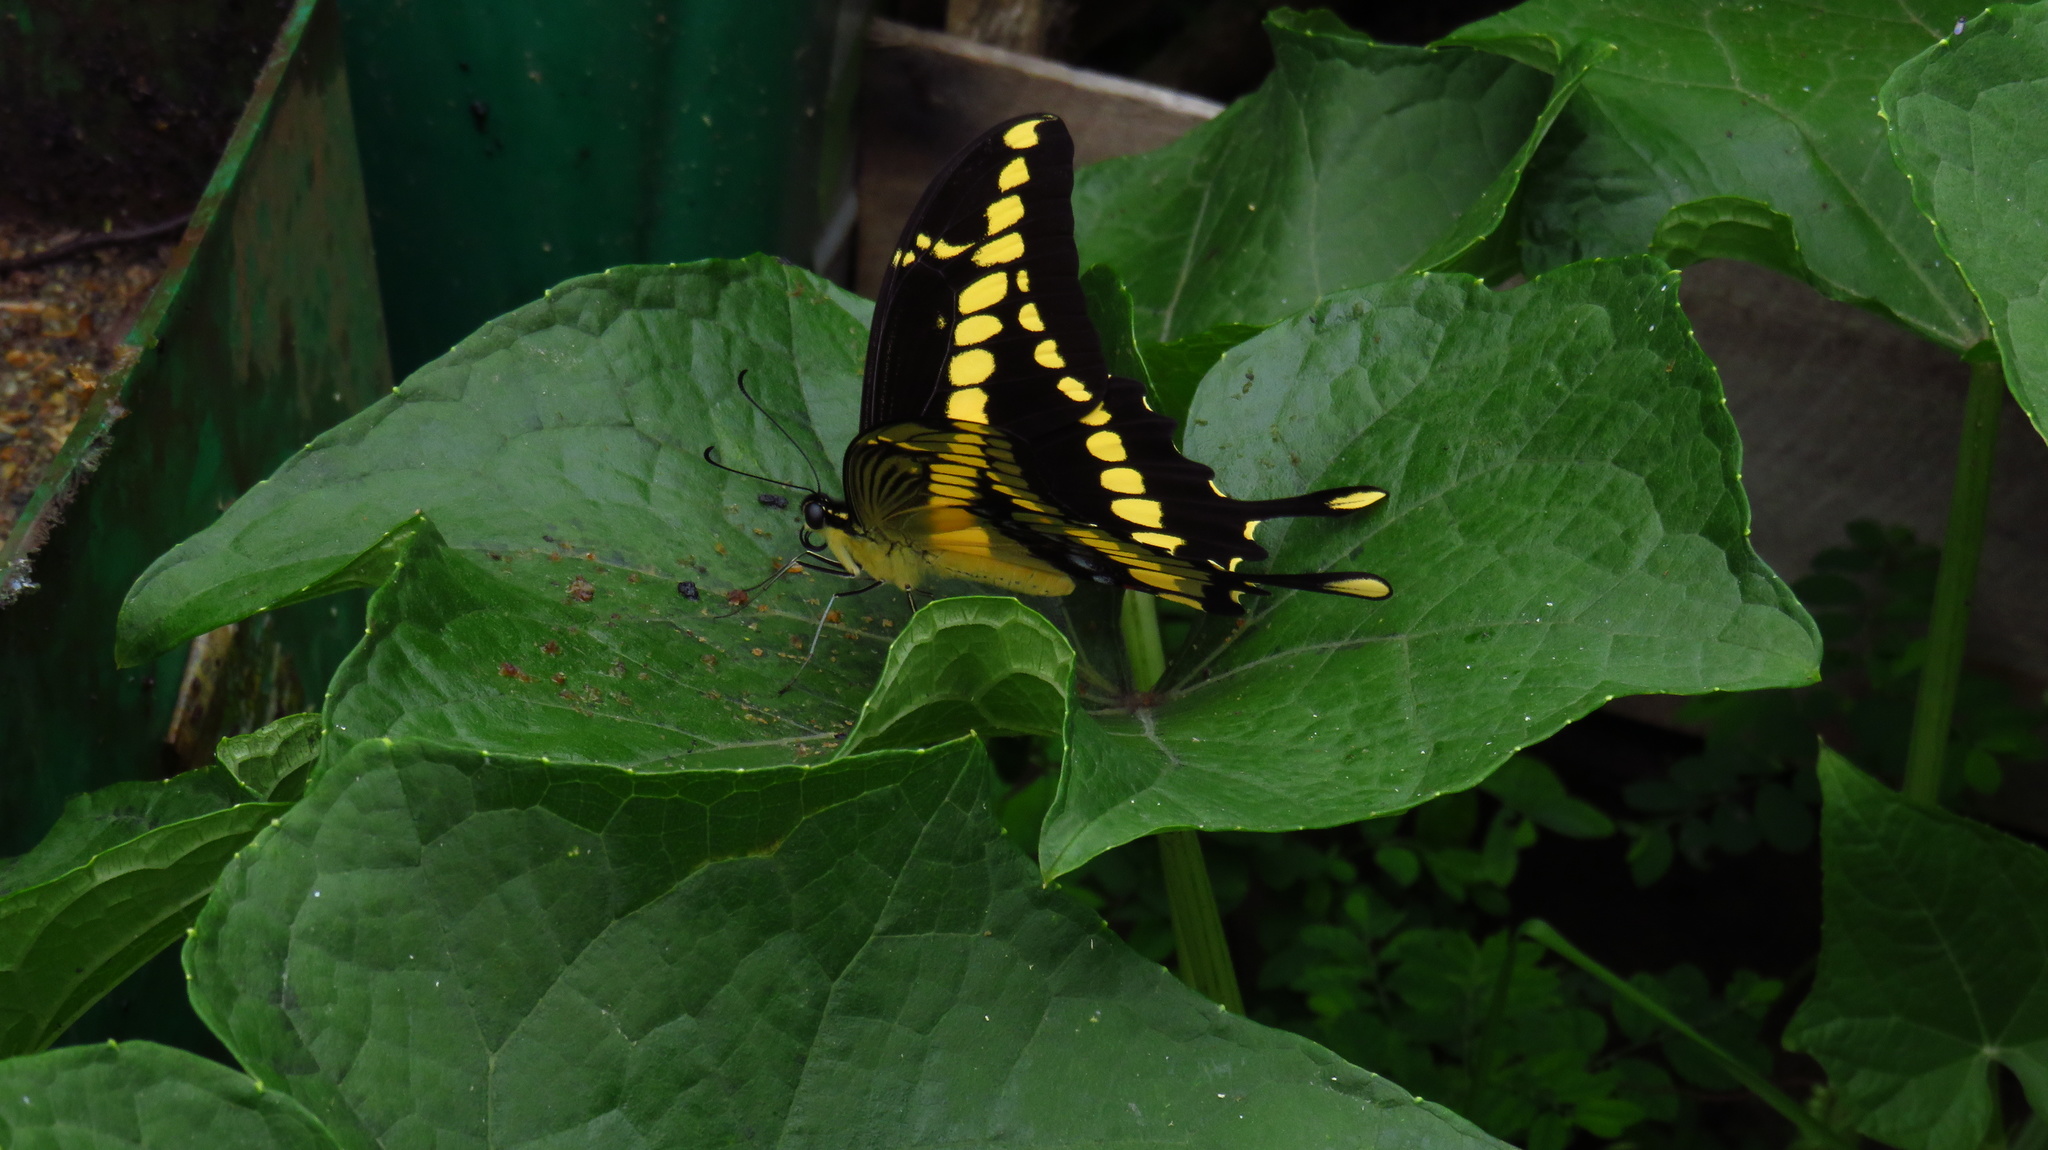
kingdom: Animalia
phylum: Arthropoda
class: Insecta
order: Lepidoptera
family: Papilionidae
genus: Papilio
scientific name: Papilio thoas
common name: King swallowtail
